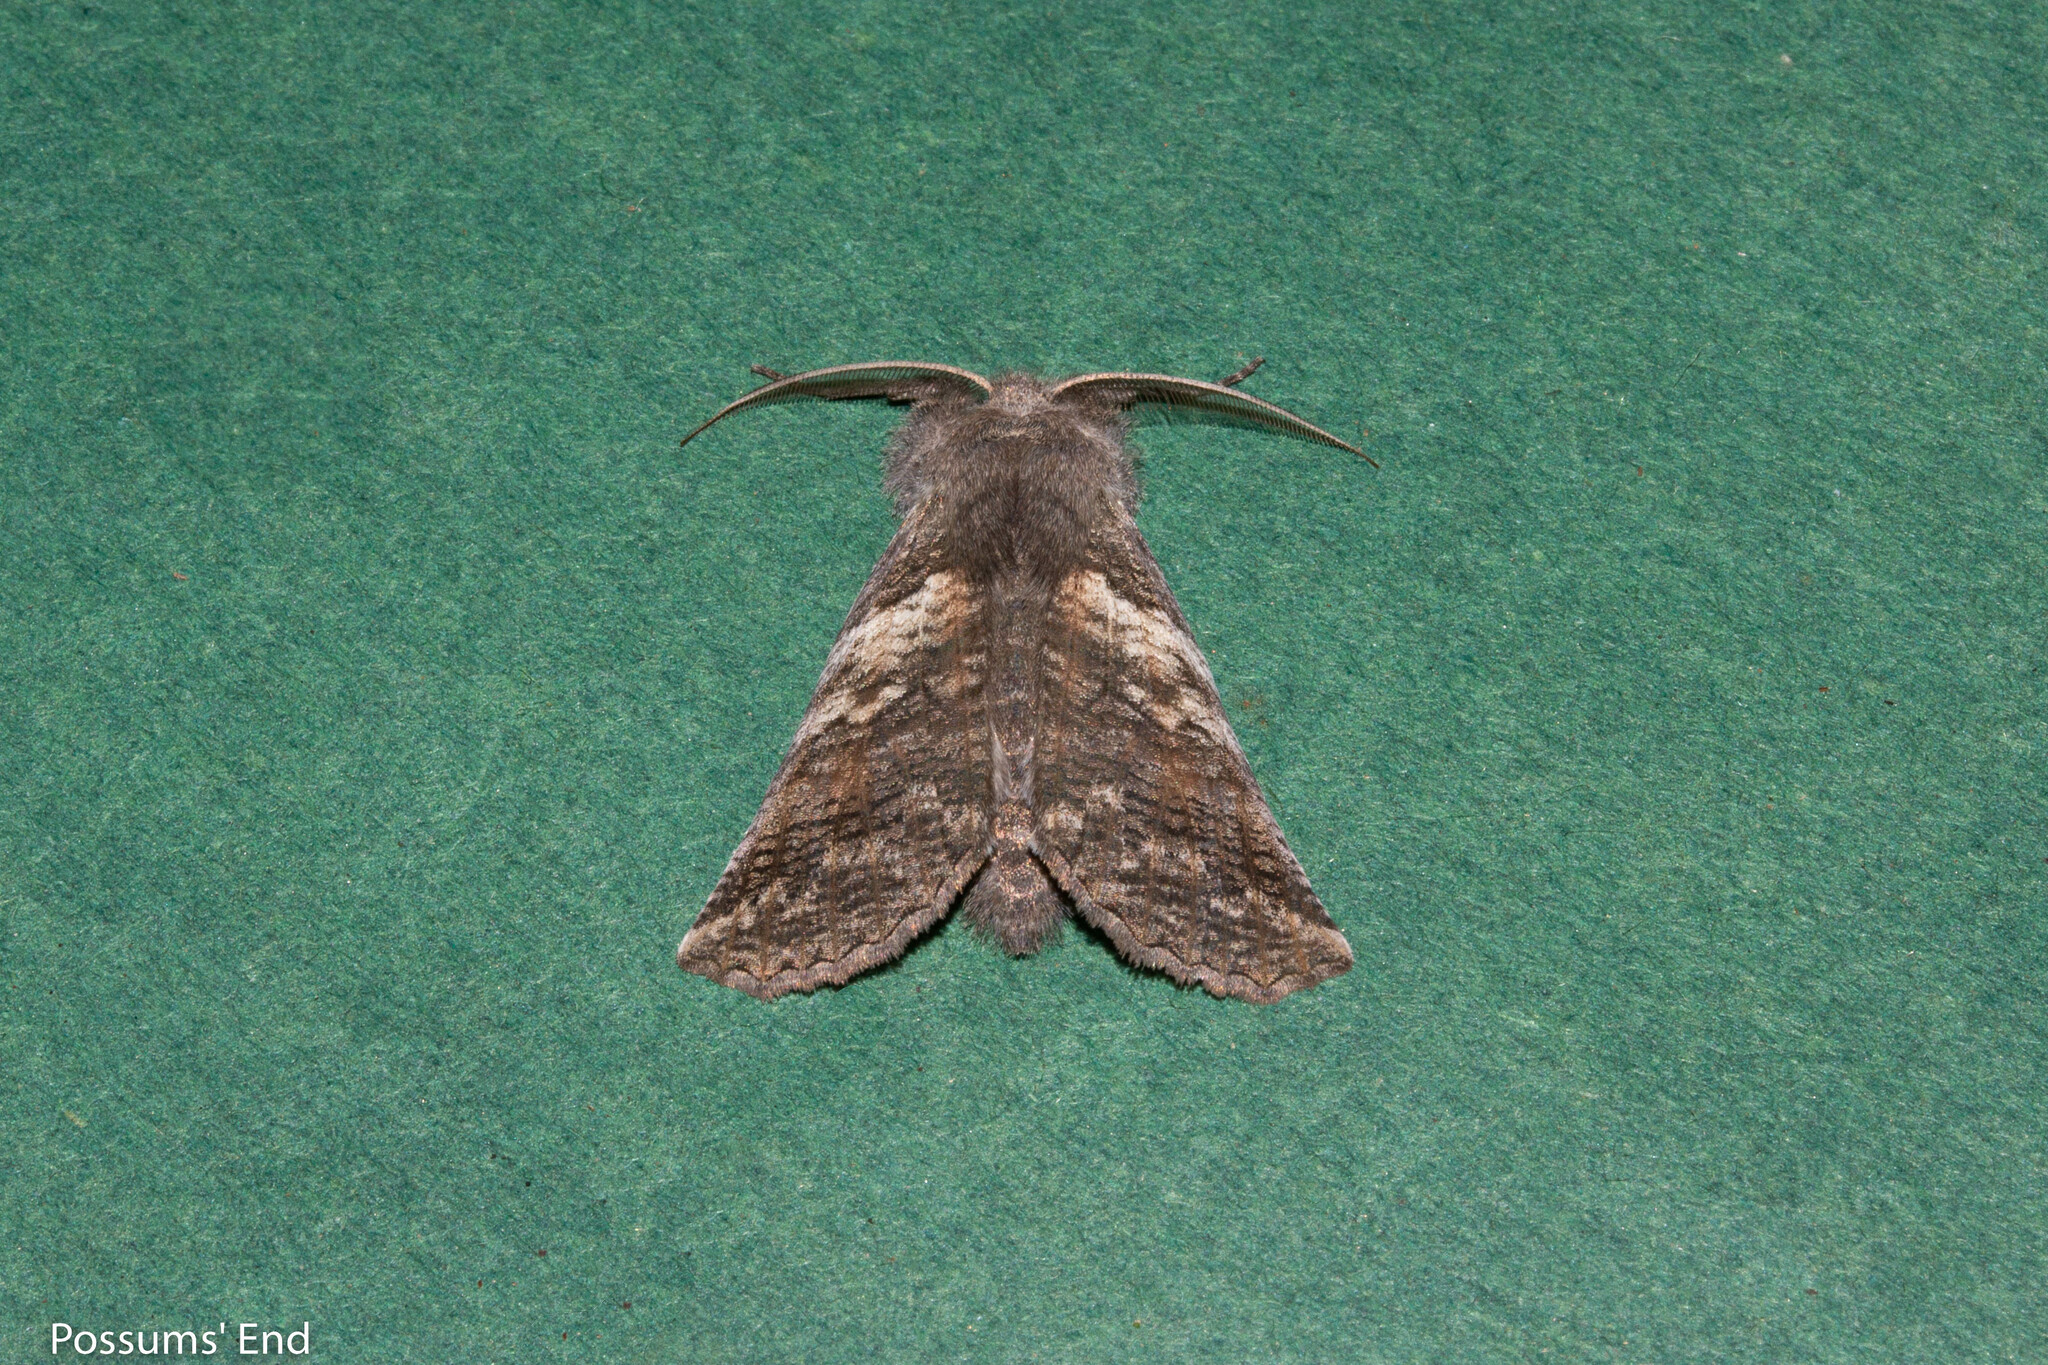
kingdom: Animalia
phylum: Arthropoda
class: Insecta
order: Lepidoptera
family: Geometridae
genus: Declana
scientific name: Declana
